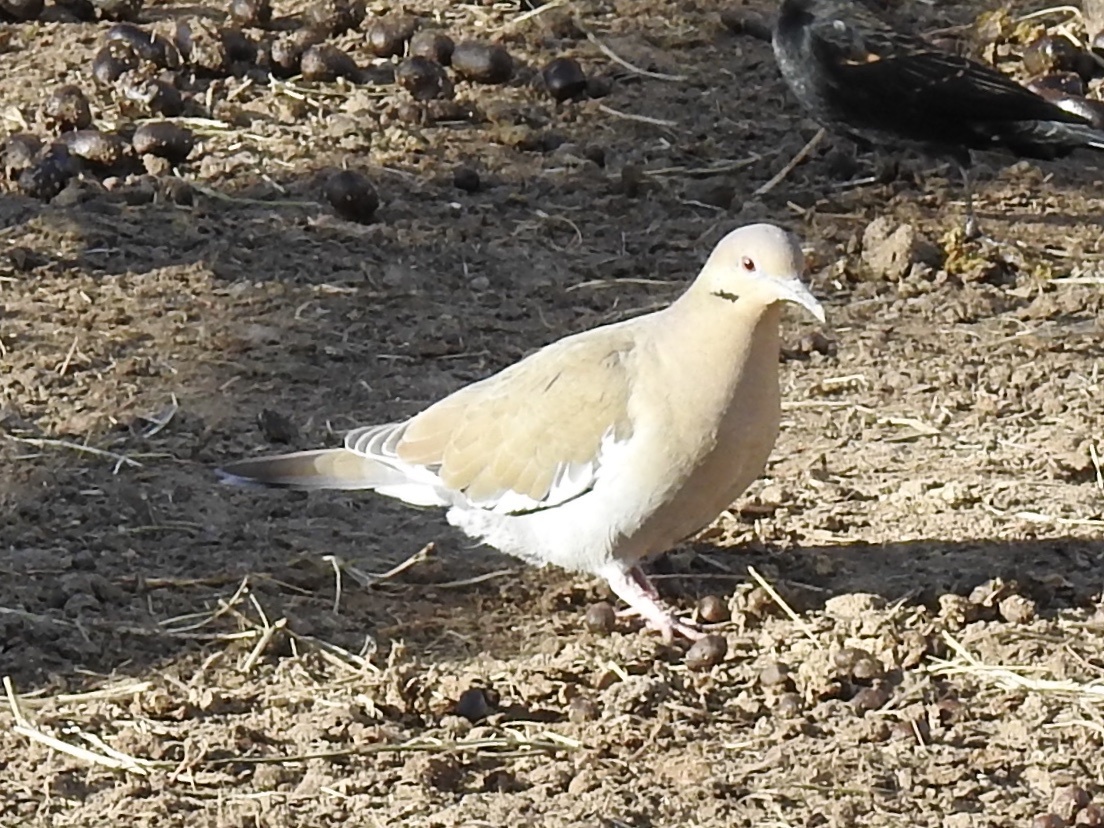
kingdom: Animalia
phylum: Chordata
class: Aves
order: Columbiformes
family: Columbidae
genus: Zenaida
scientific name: Zenaida asiatica
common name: White-winged dove
